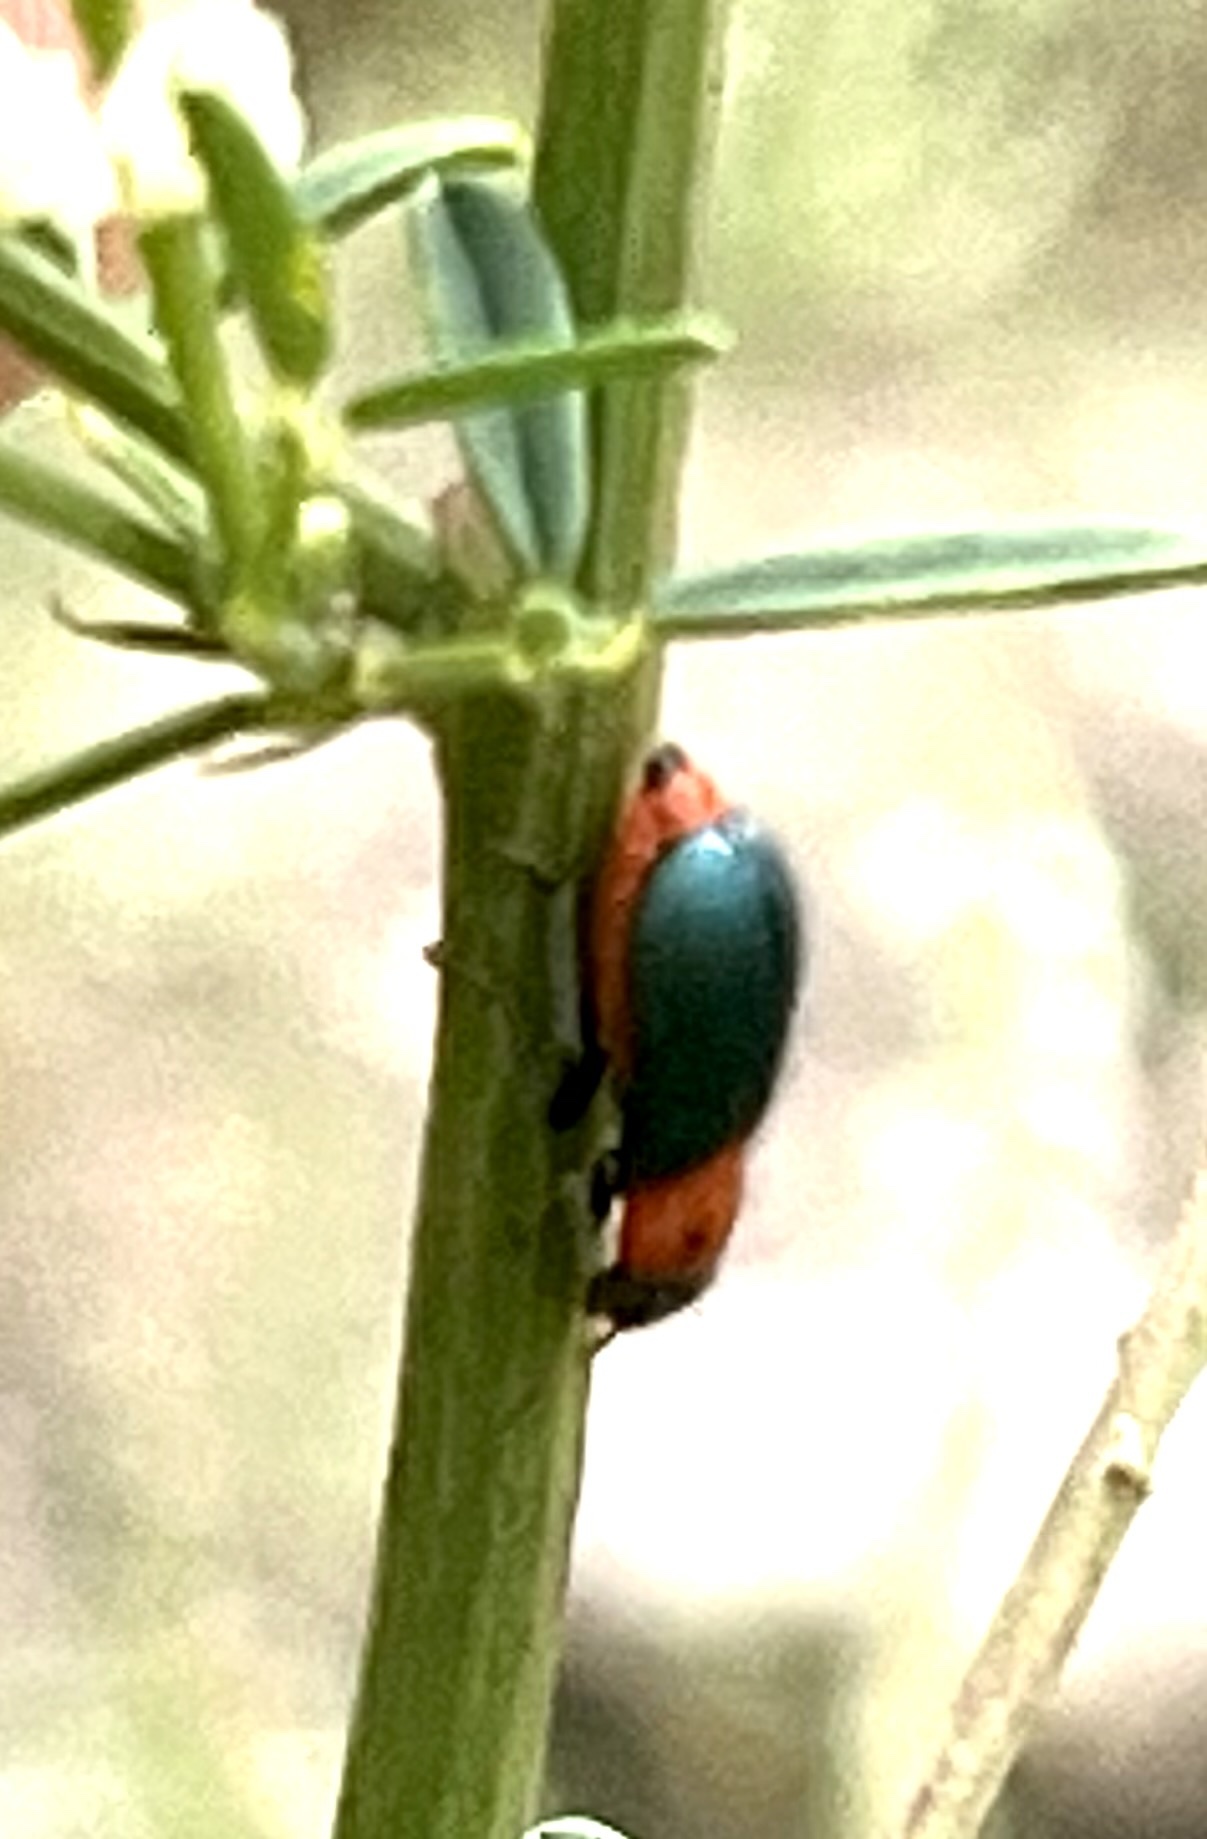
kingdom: Animalia
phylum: Arthropoda
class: Insecta
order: Coleoptera
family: Melyridae
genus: Collops
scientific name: Collops bipunctatus
